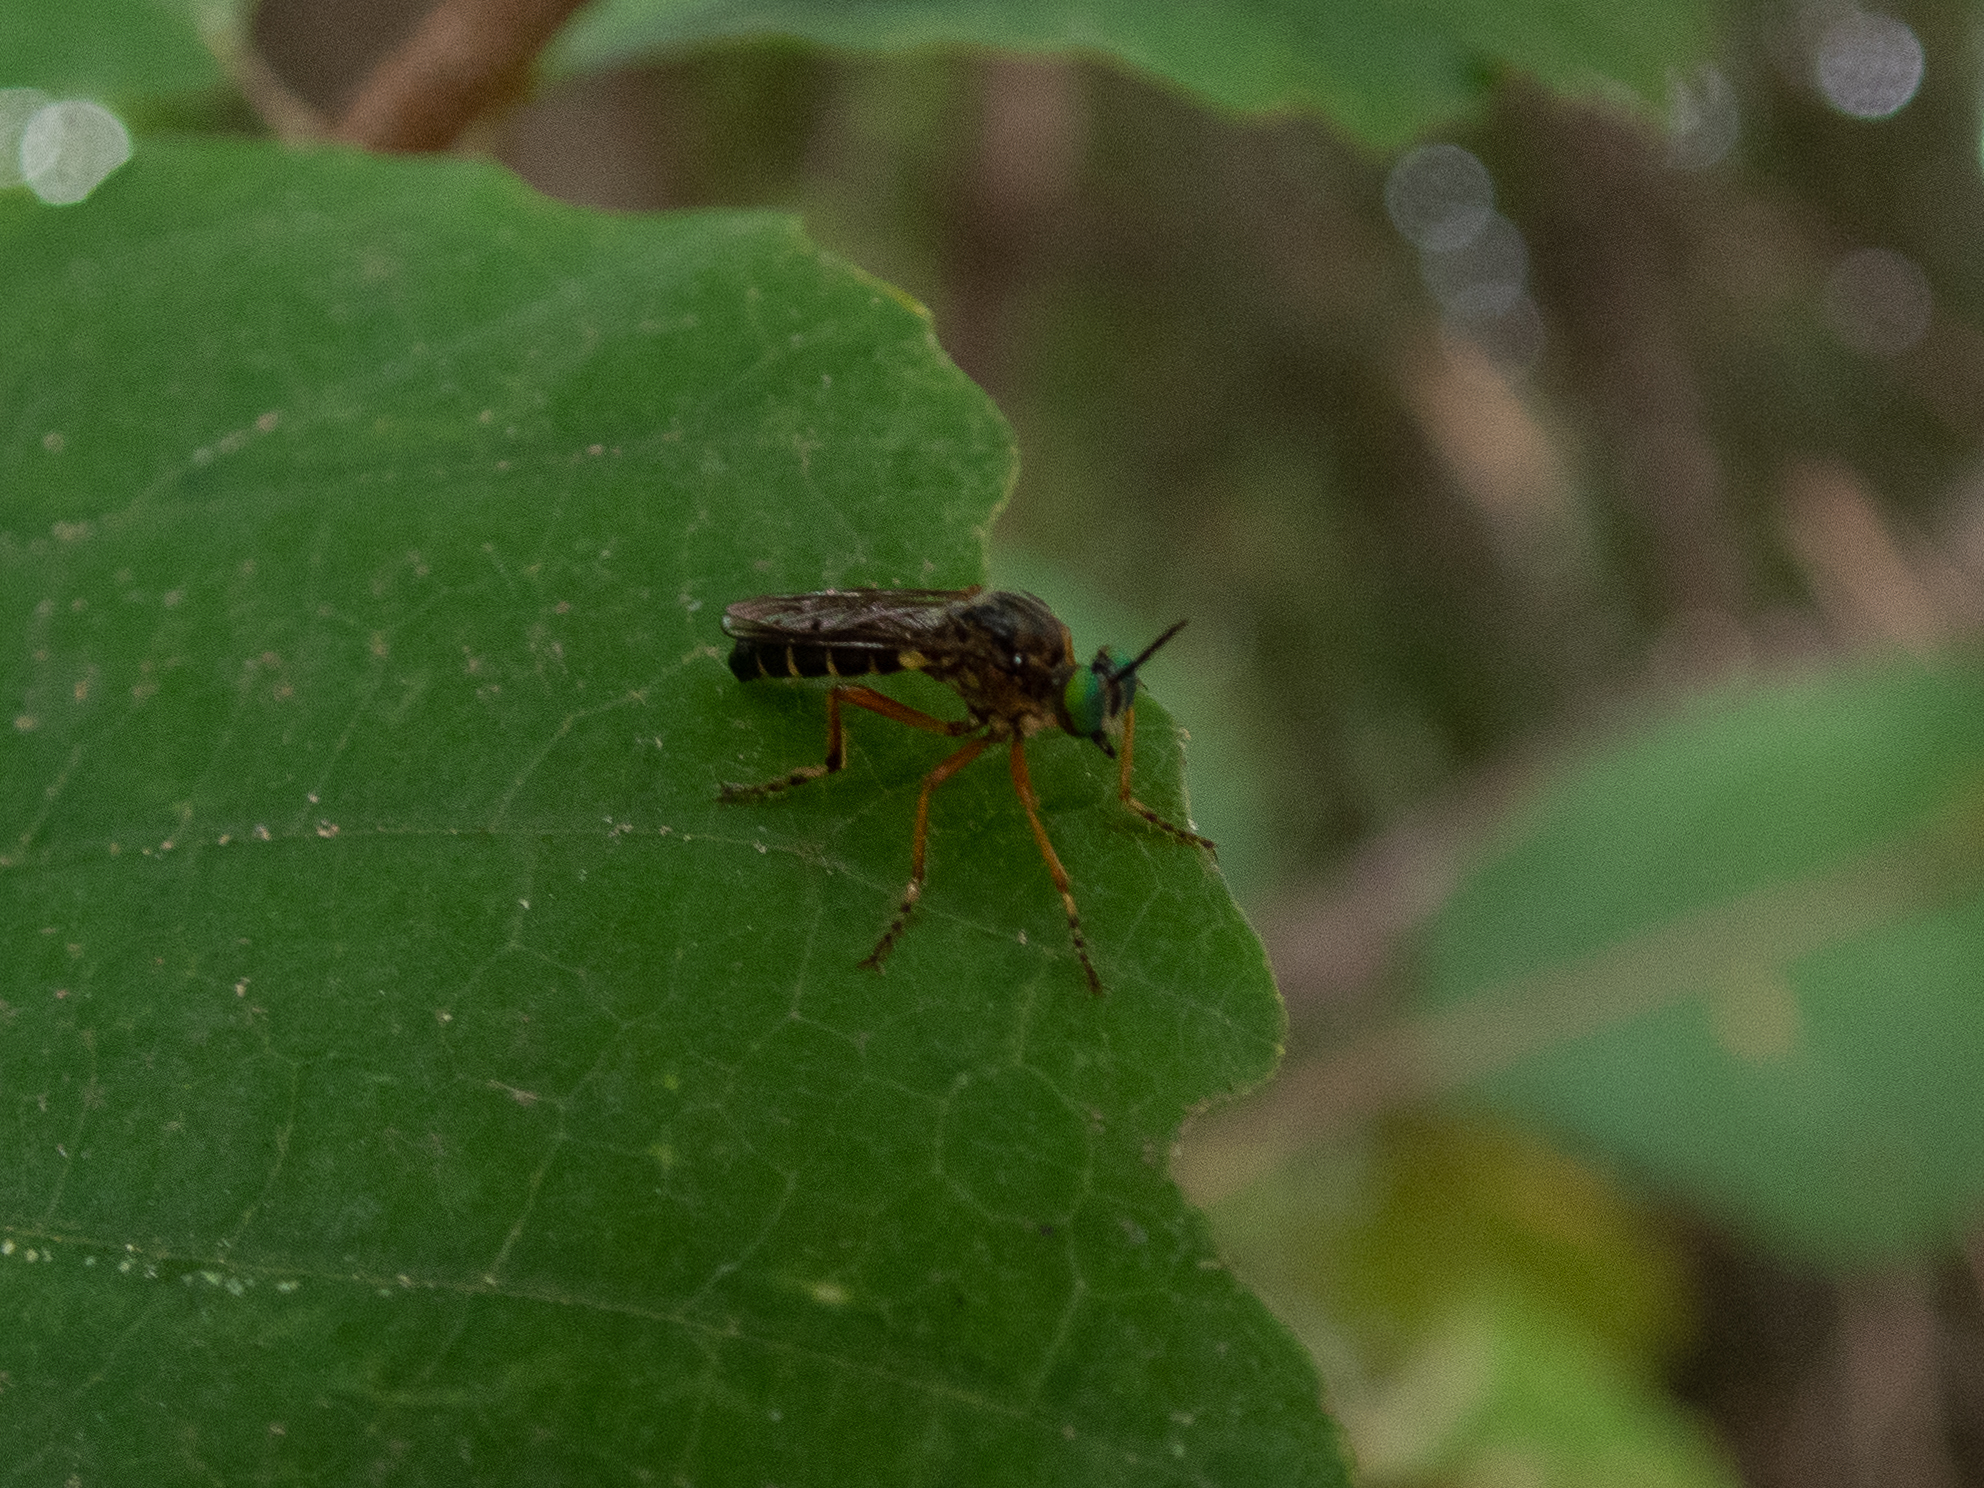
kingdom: Animalia
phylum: Arthropoda
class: Insecta
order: Diptera
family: Asilidae
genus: Taracticus
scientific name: Taracticus octopunctatus
